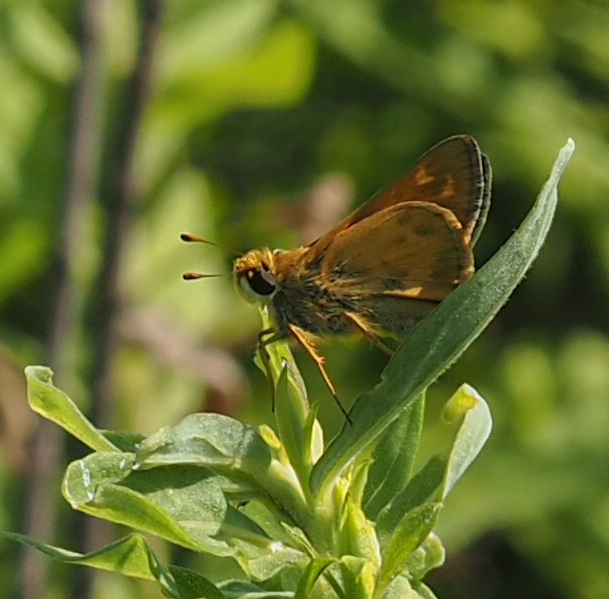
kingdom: Animalia
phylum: Arthropoda
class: Insecta
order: Lepidoptera
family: Hesperiidae
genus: Atalopedes
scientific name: Atalopedes
